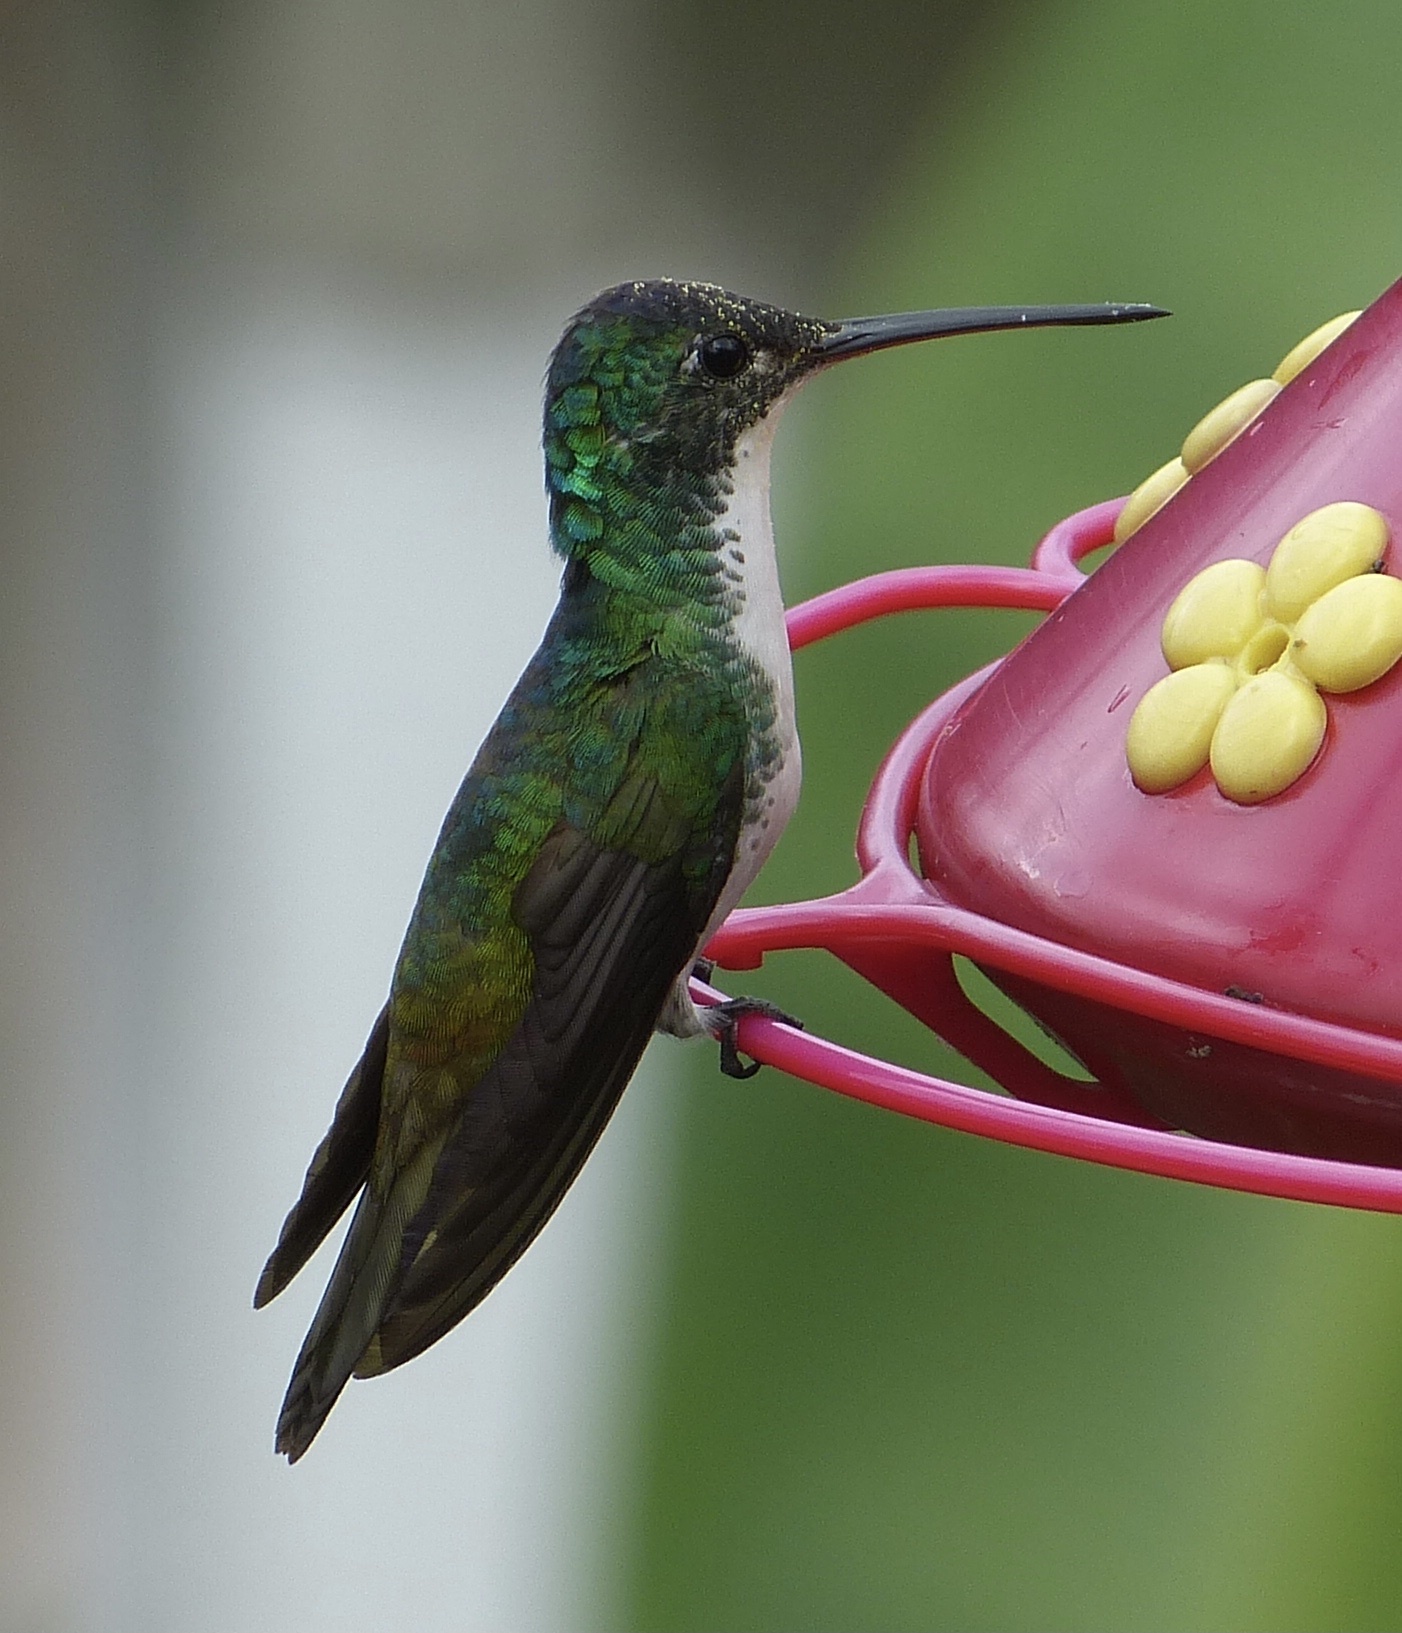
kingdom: Animalia
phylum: Chordata
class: Aves
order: Apodiformes
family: Trochilidae
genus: Uranomitra
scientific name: Uranomitra franciae
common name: Andean emerald
